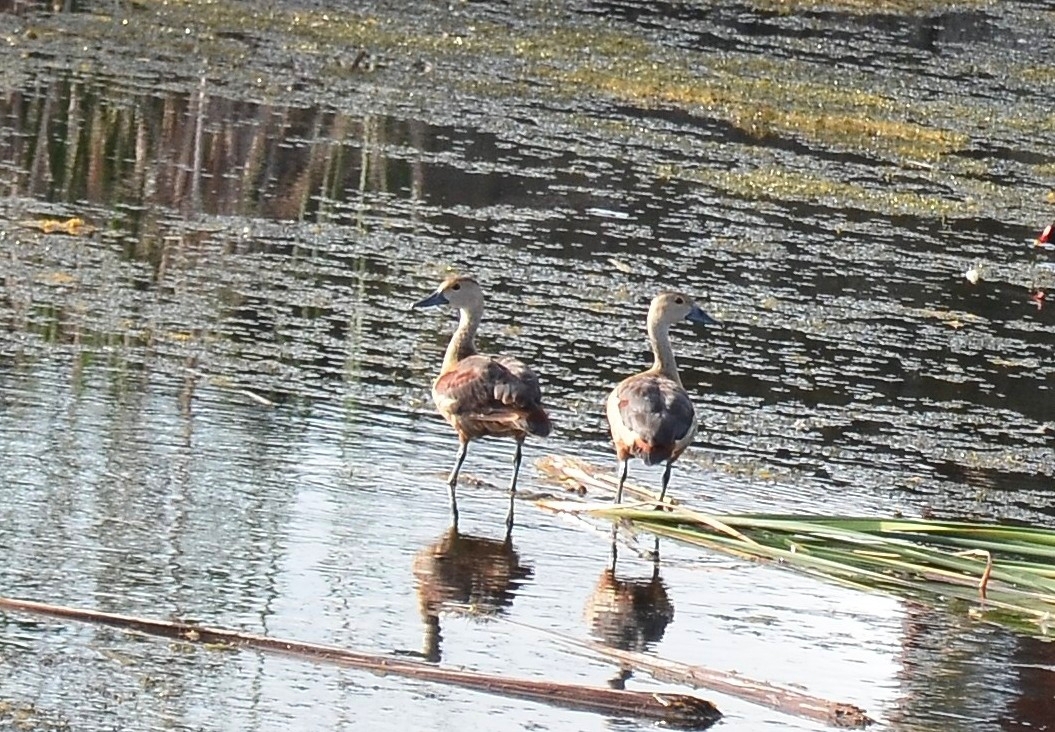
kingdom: Animalia
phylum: Chordata
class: Aves
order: Anseriformes
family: Anatidae
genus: Dendrocygna
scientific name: Dendrocygna javanica
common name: Lesser whistling-duck
